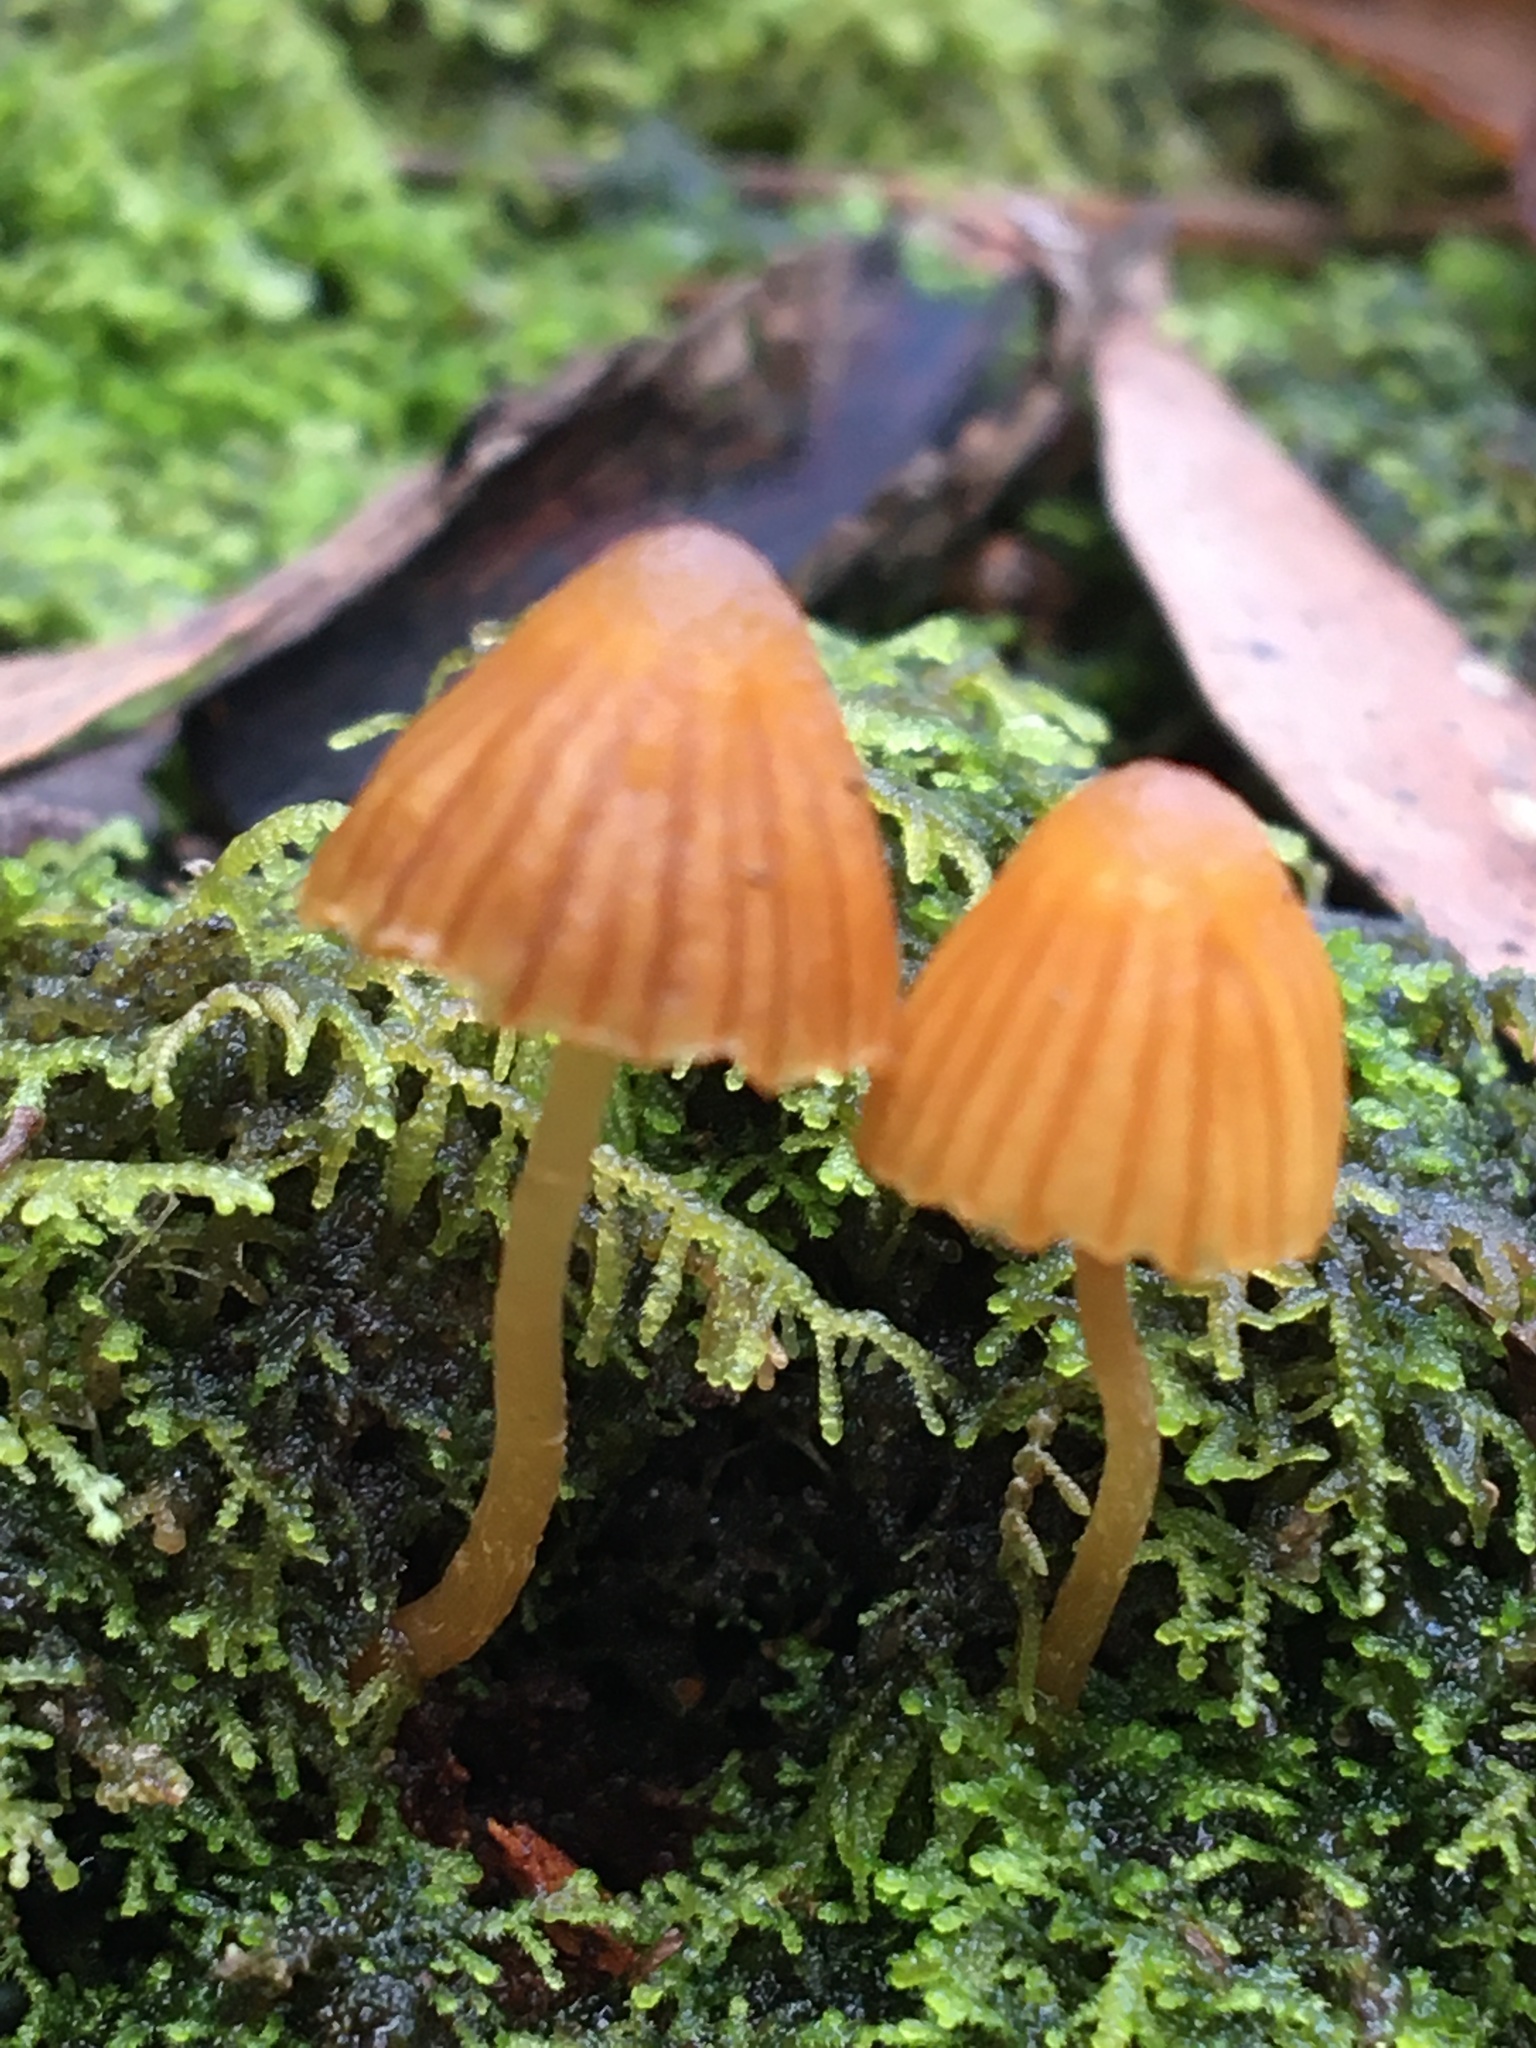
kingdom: Fungi
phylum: Basidiomycota
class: Agaricomycetes
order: Agaricales
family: Hymenogastraceae
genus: Galerina
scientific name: Galerina hypnorum
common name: Moss bell
